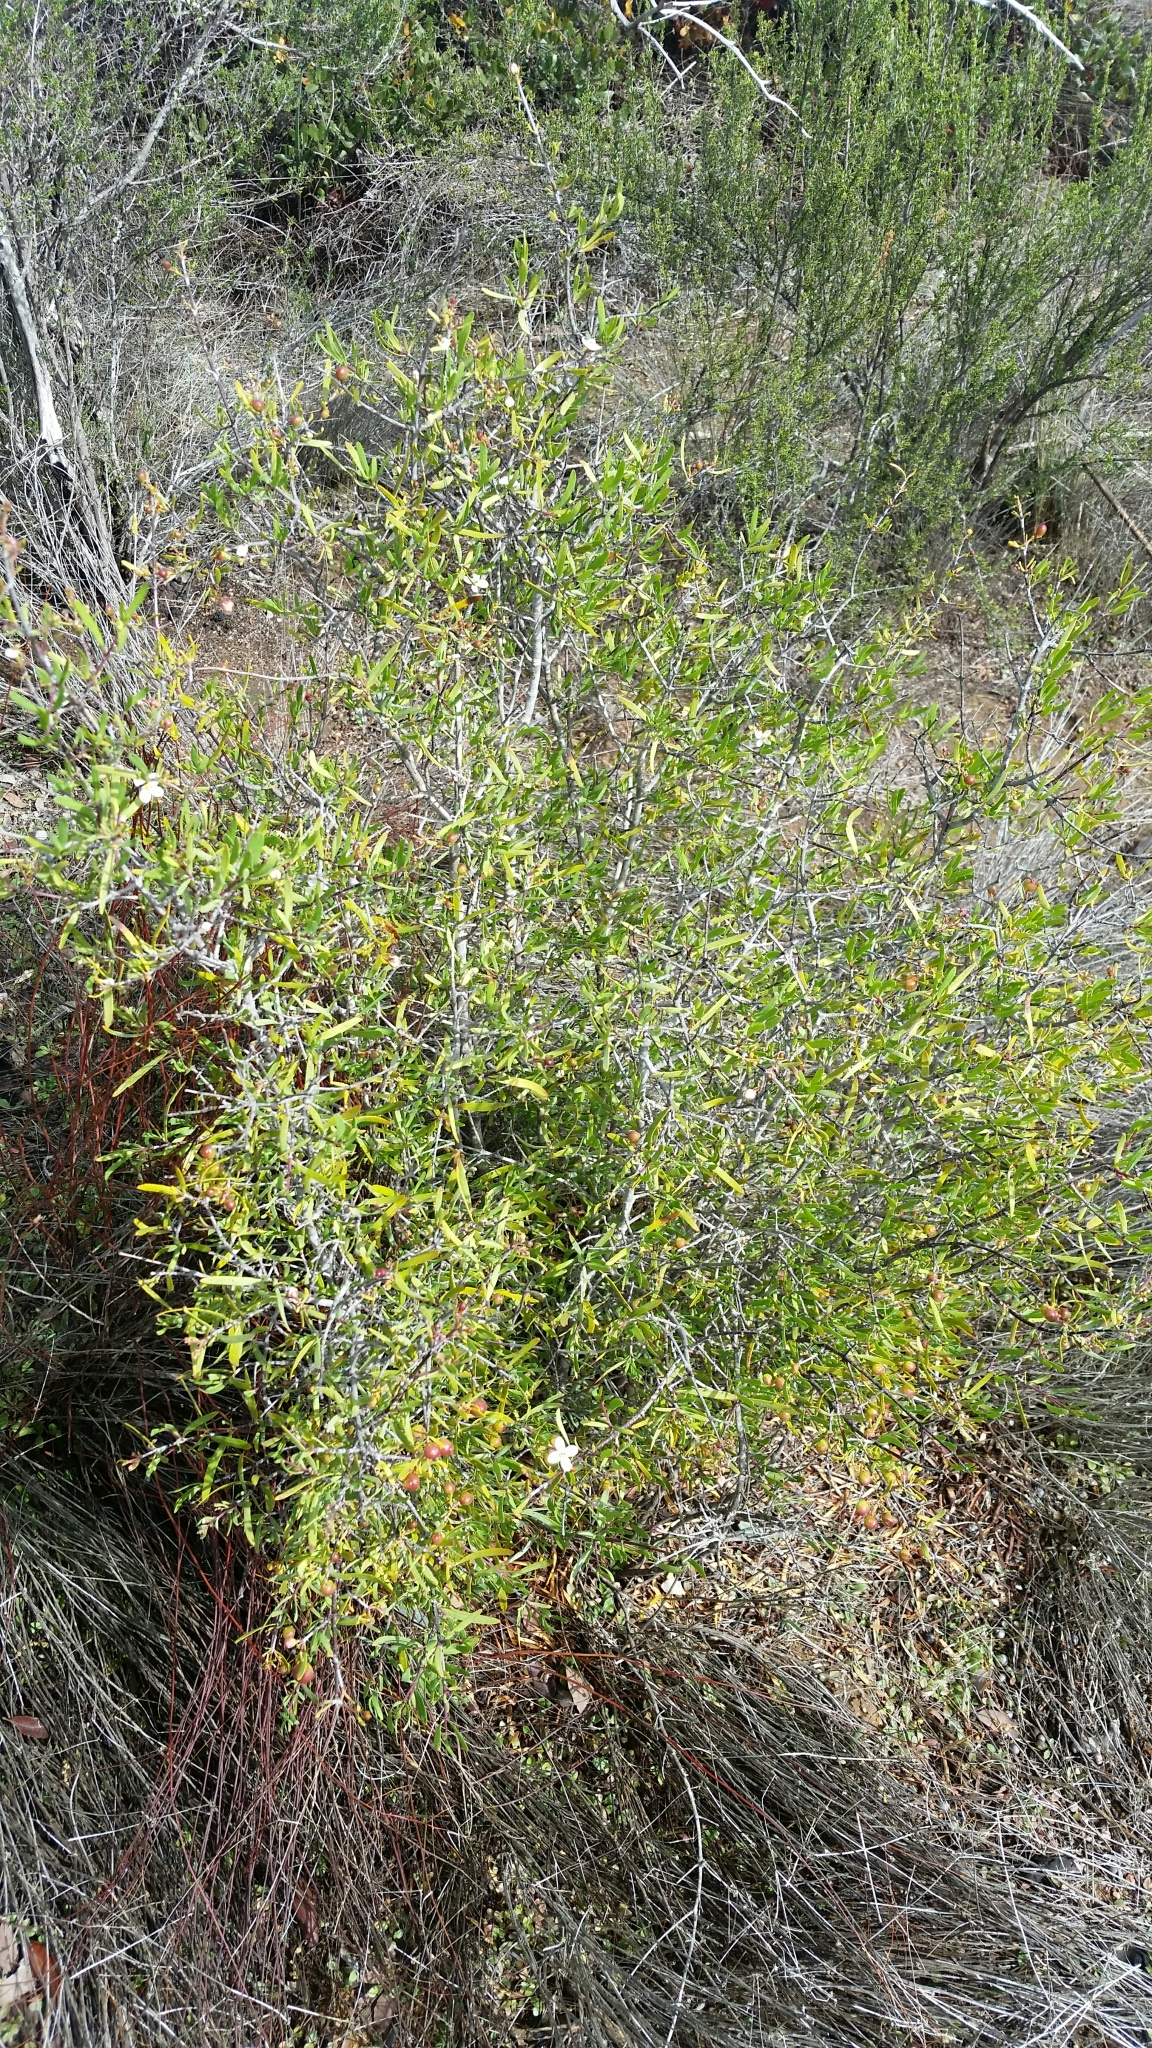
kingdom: Plantae
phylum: Tracheophyta
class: Magnoliopsida
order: Sapindales
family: Rutaceae
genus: Cneoridium
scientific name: Cneoridium dumosum
